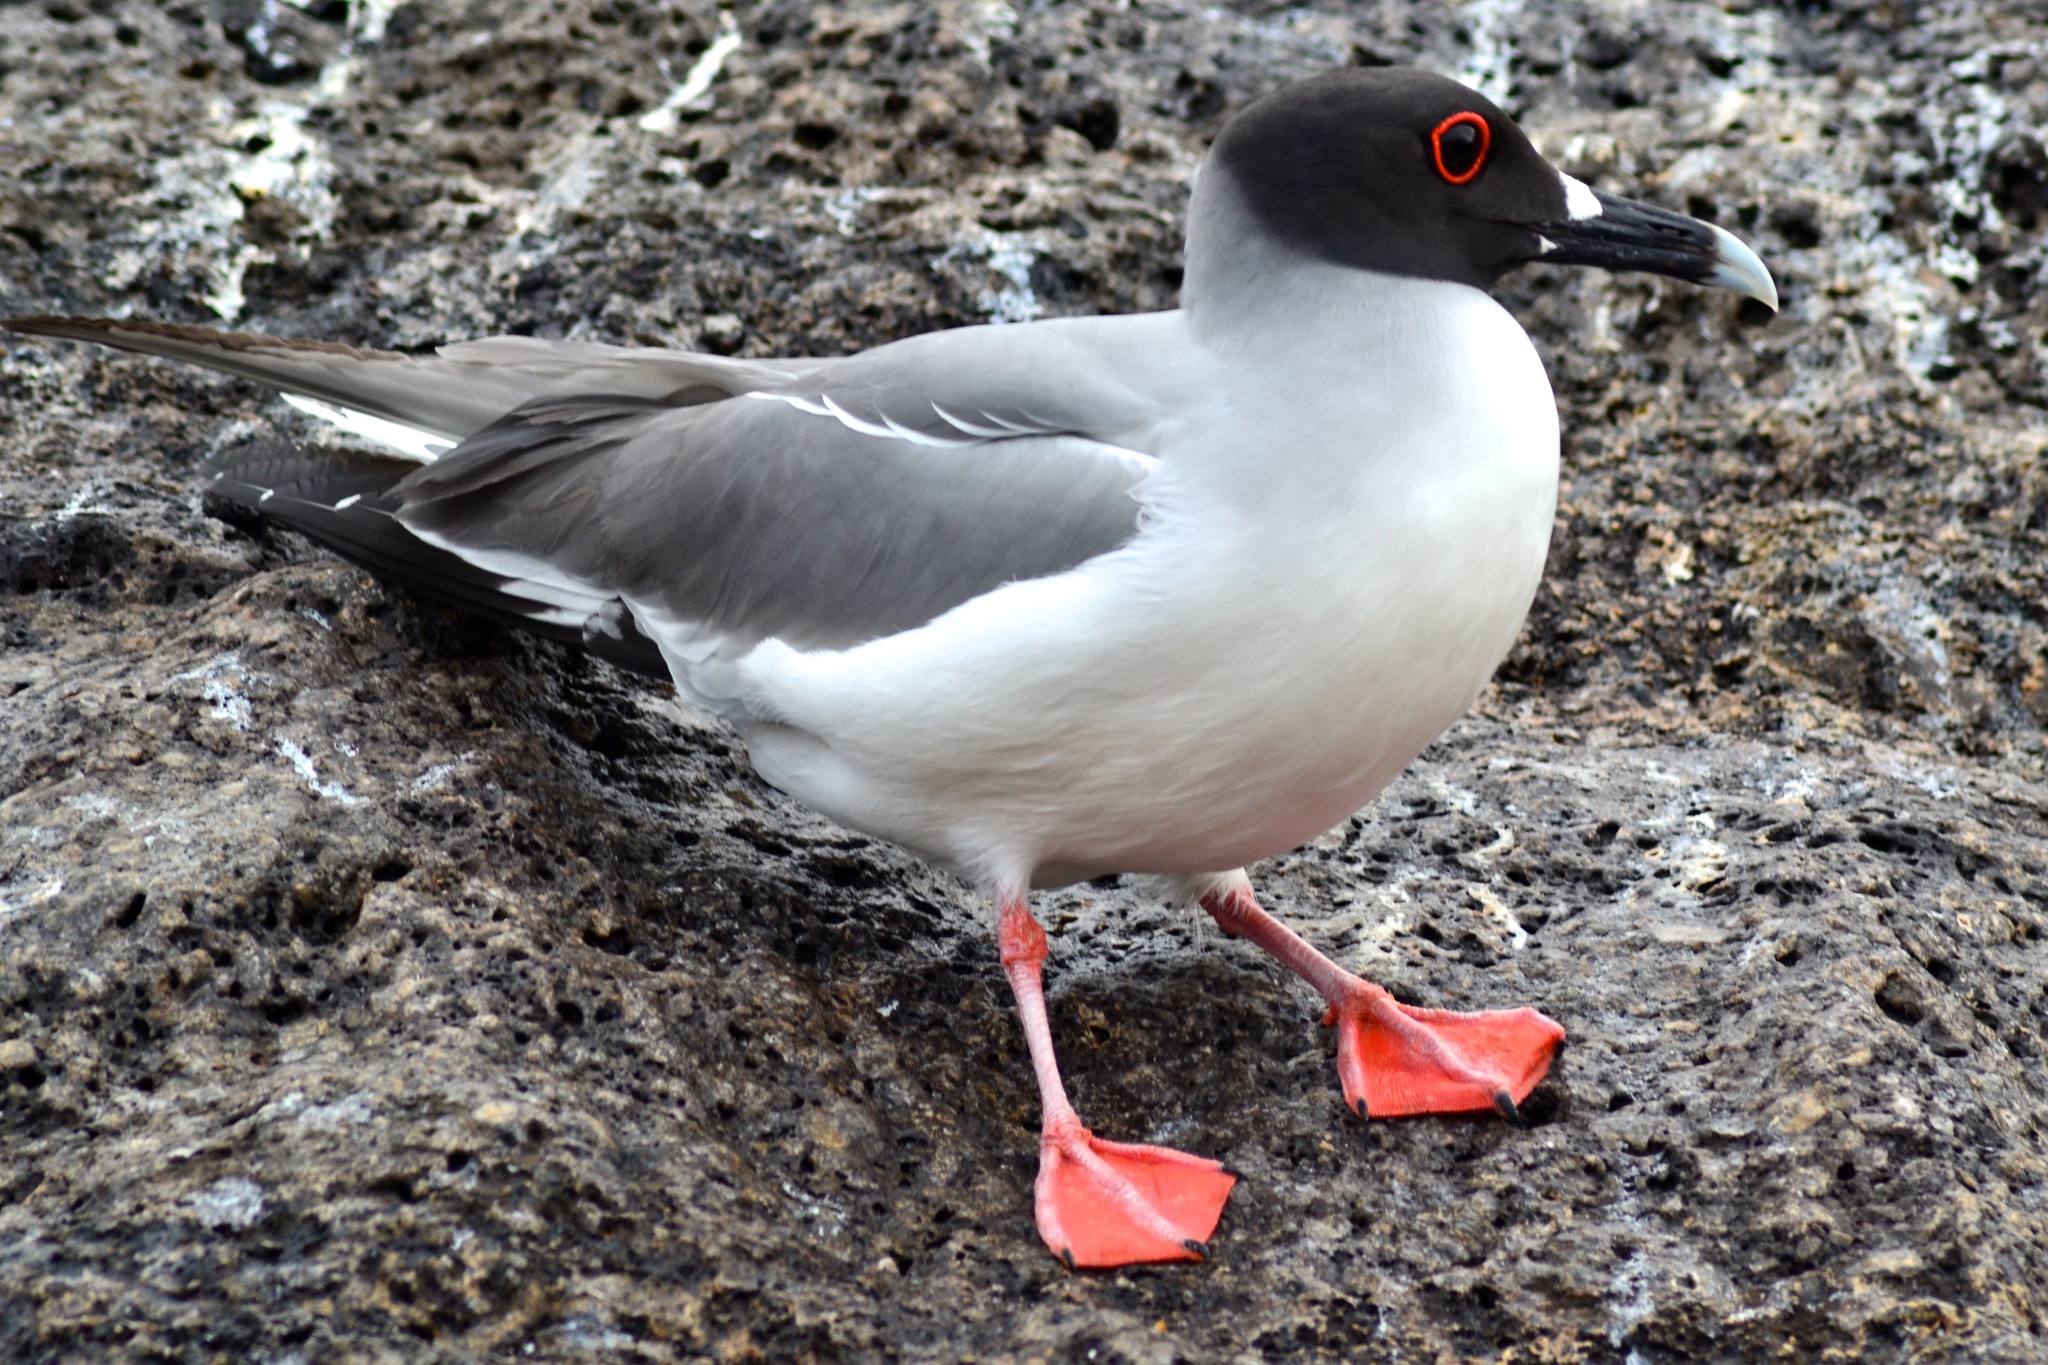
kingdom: Animalia
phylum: Chordata
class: Aves
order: Charadriiformes
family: Laridae
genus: Creagrus
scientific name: Creagrus furcatus
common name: Swallow-tailed gull
